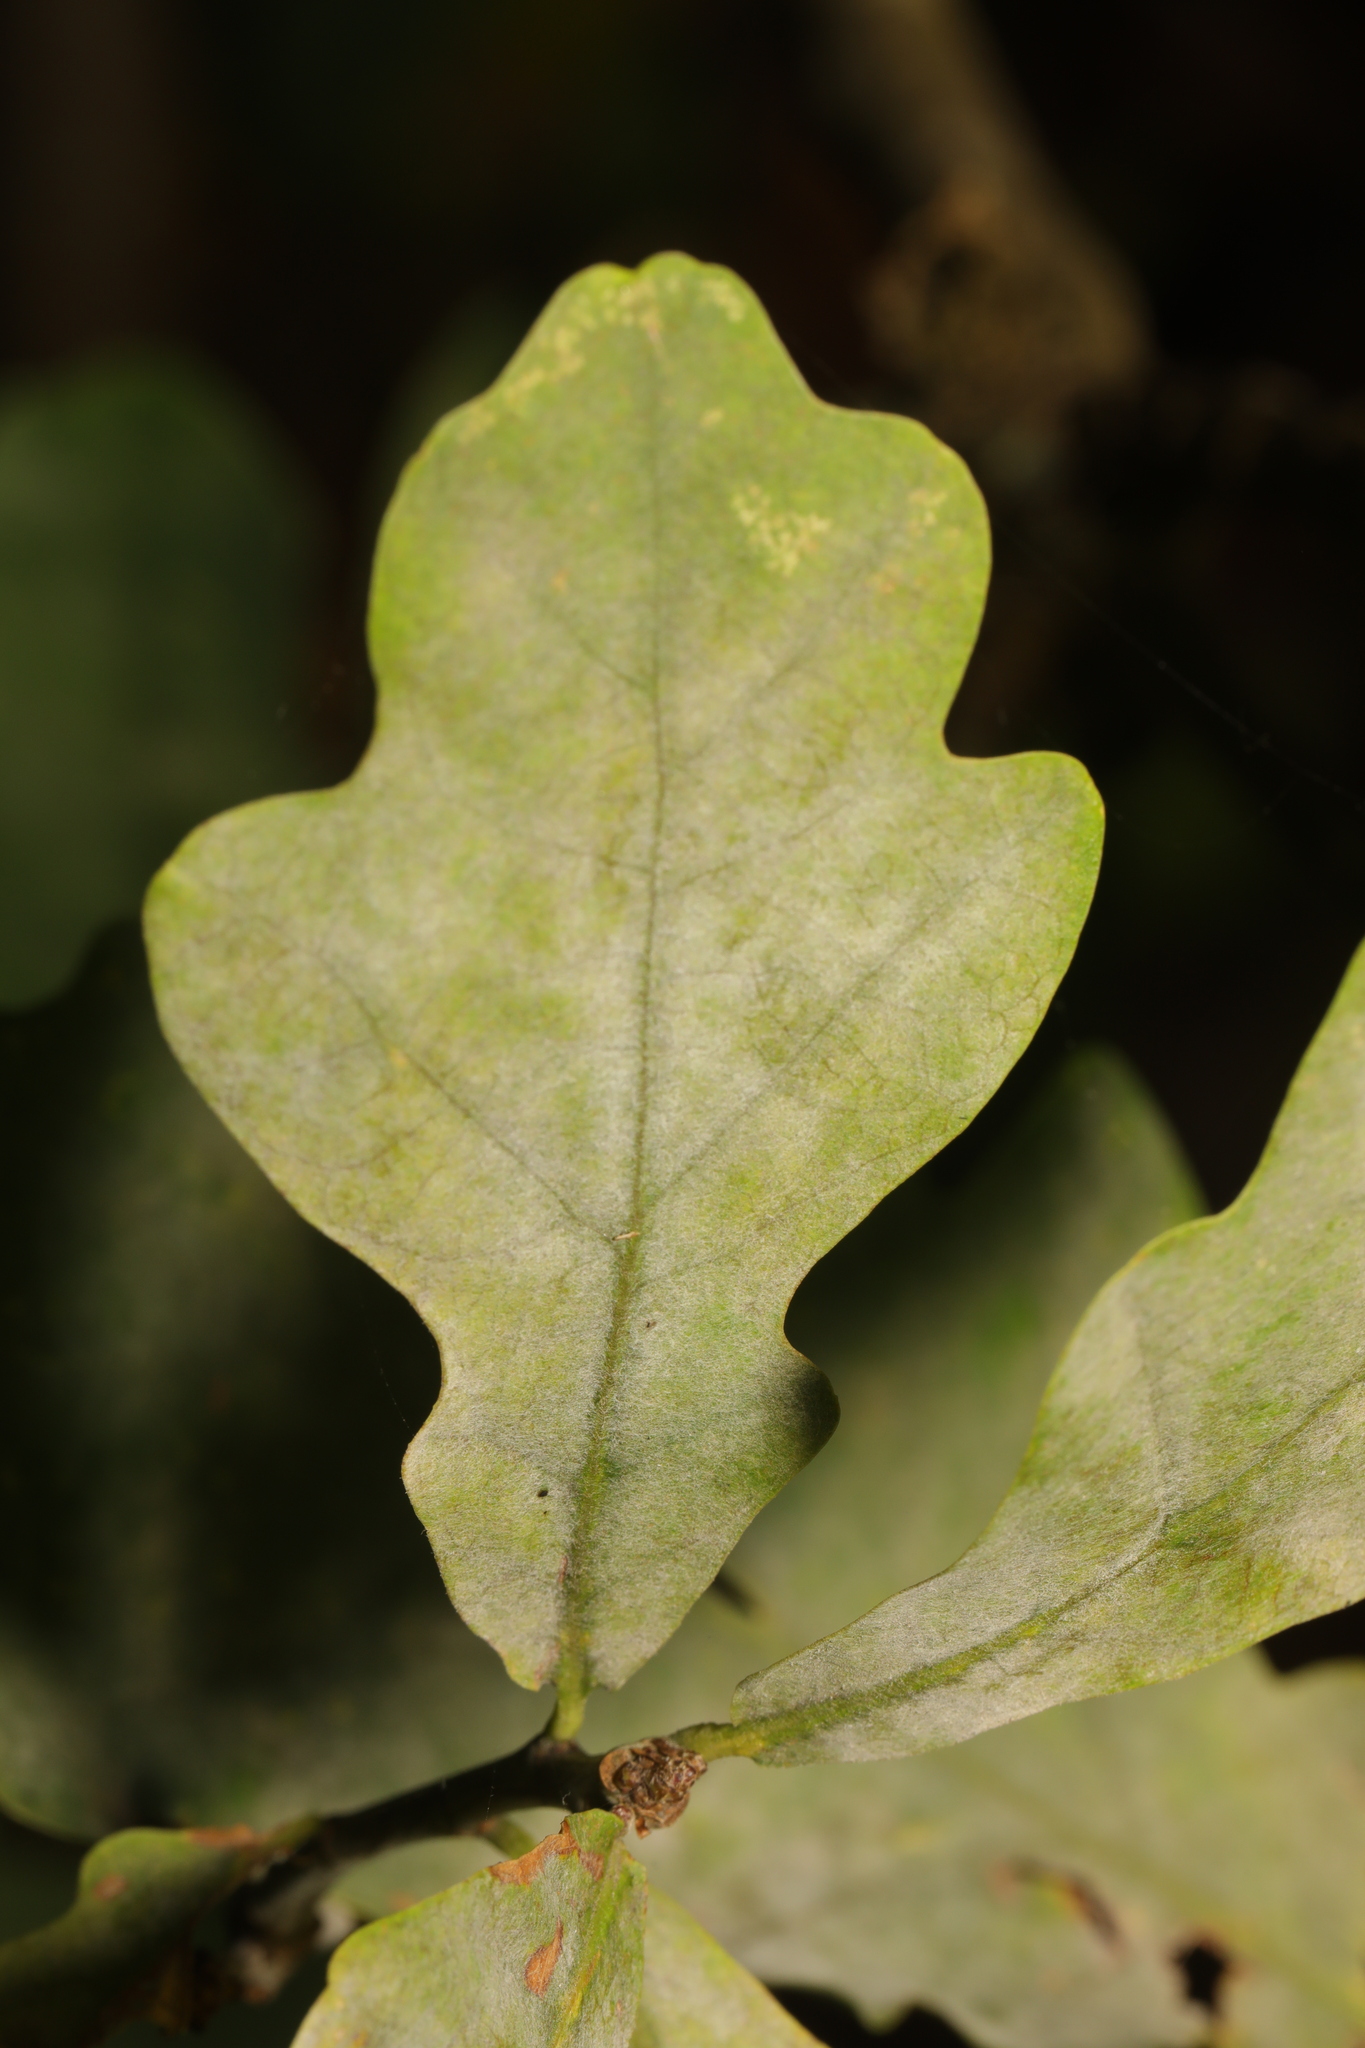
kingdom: Fungi
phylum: Ascomycota
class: Leotiomycetes
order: Helotiales
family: Erysiphaceae
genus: Erysiphe
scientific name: Erysiphe alphitoides
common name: Oak mildew
